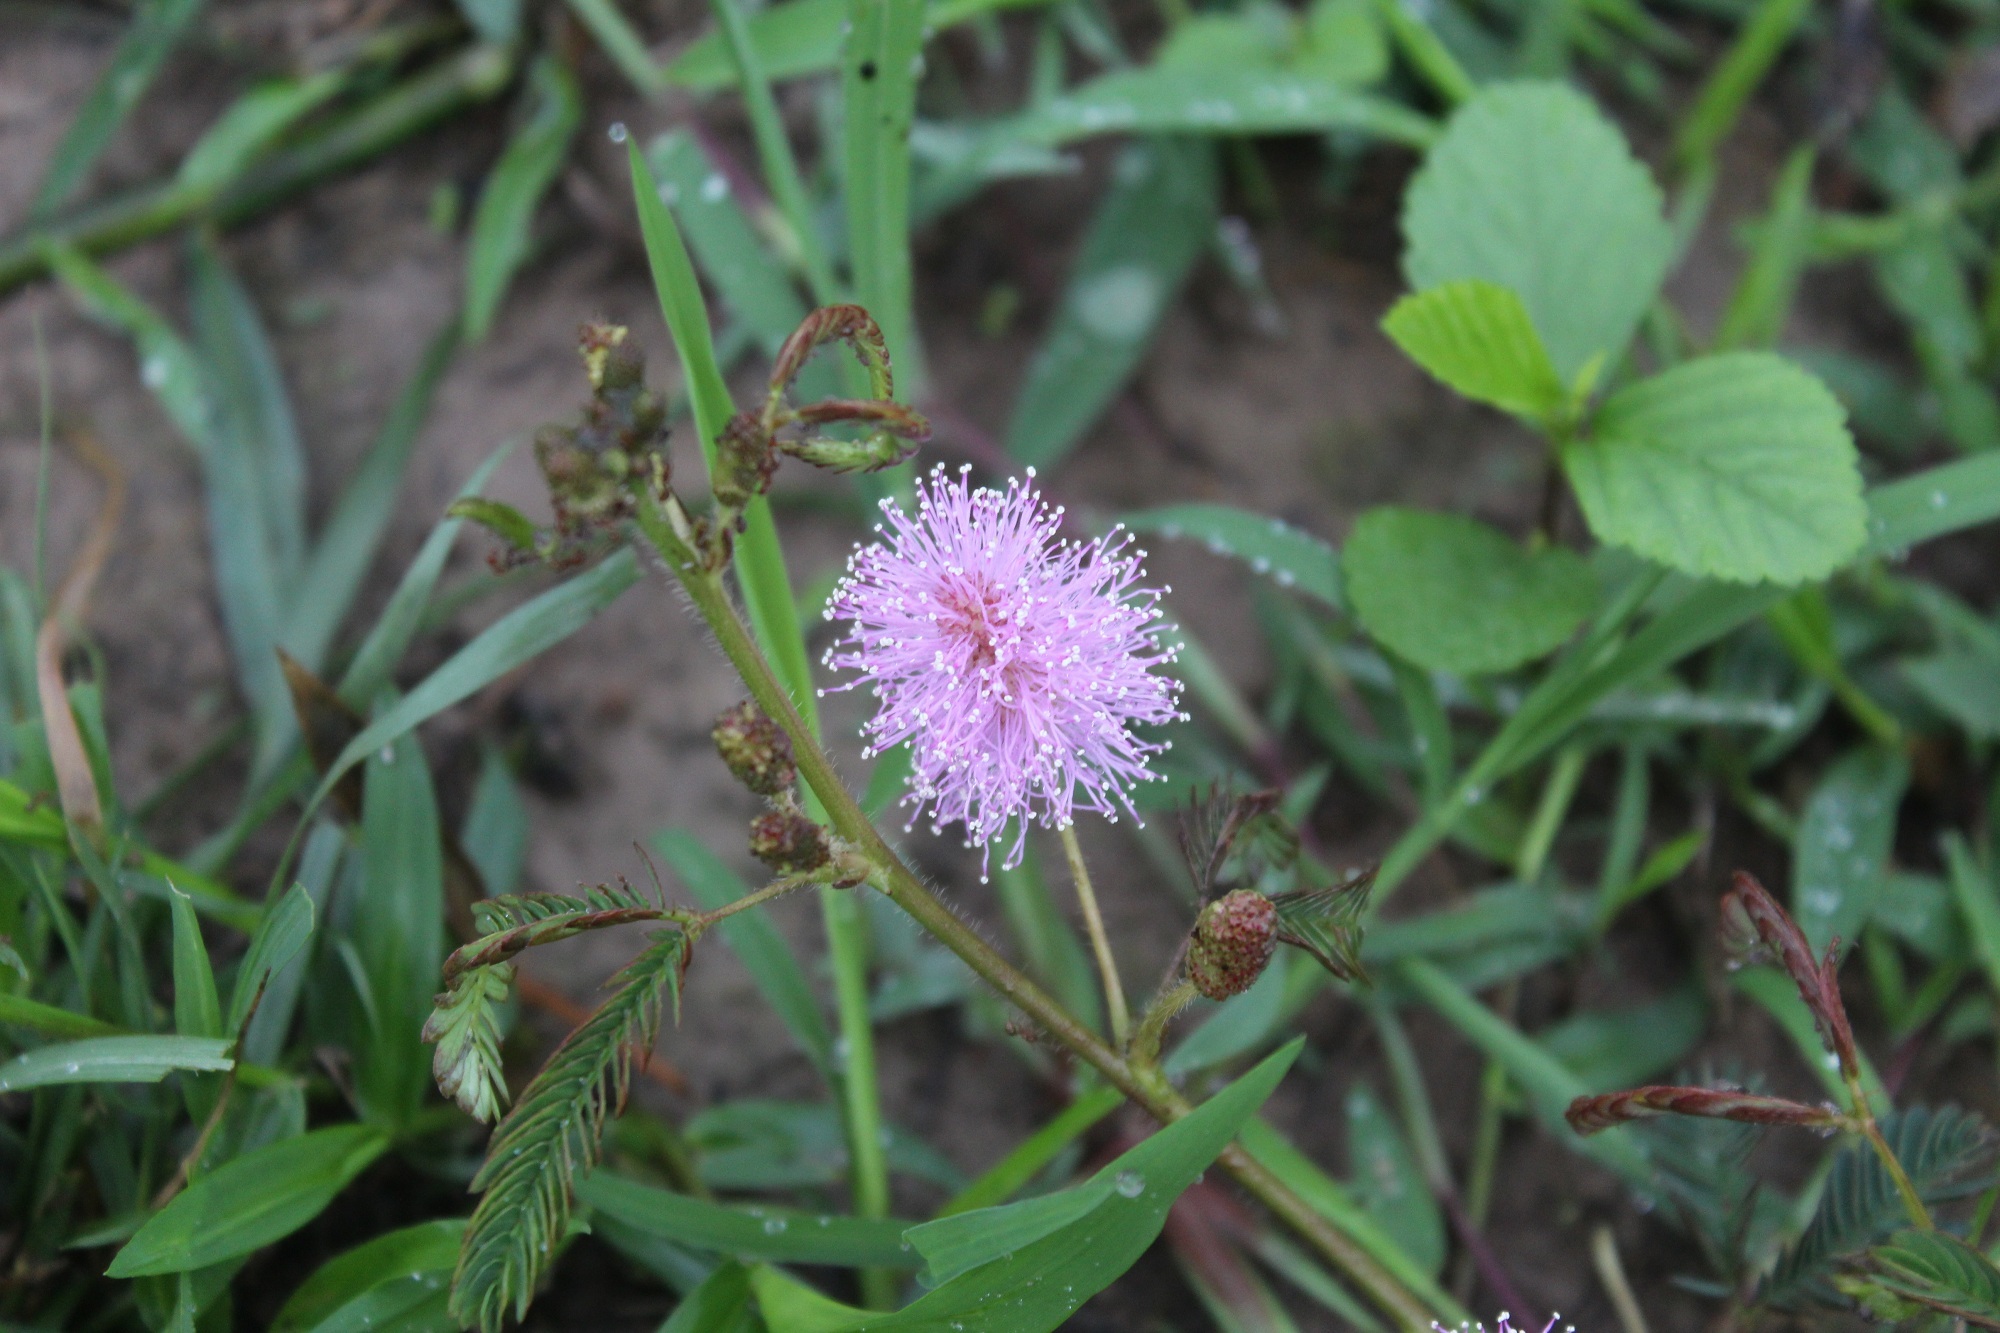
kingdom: Plantae
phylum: Tracheophyta
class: Magnoliopsida
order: Fabales
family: Fabaceae
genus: Mimosa
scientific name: Mimosa pudica
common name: Sensitive plant
